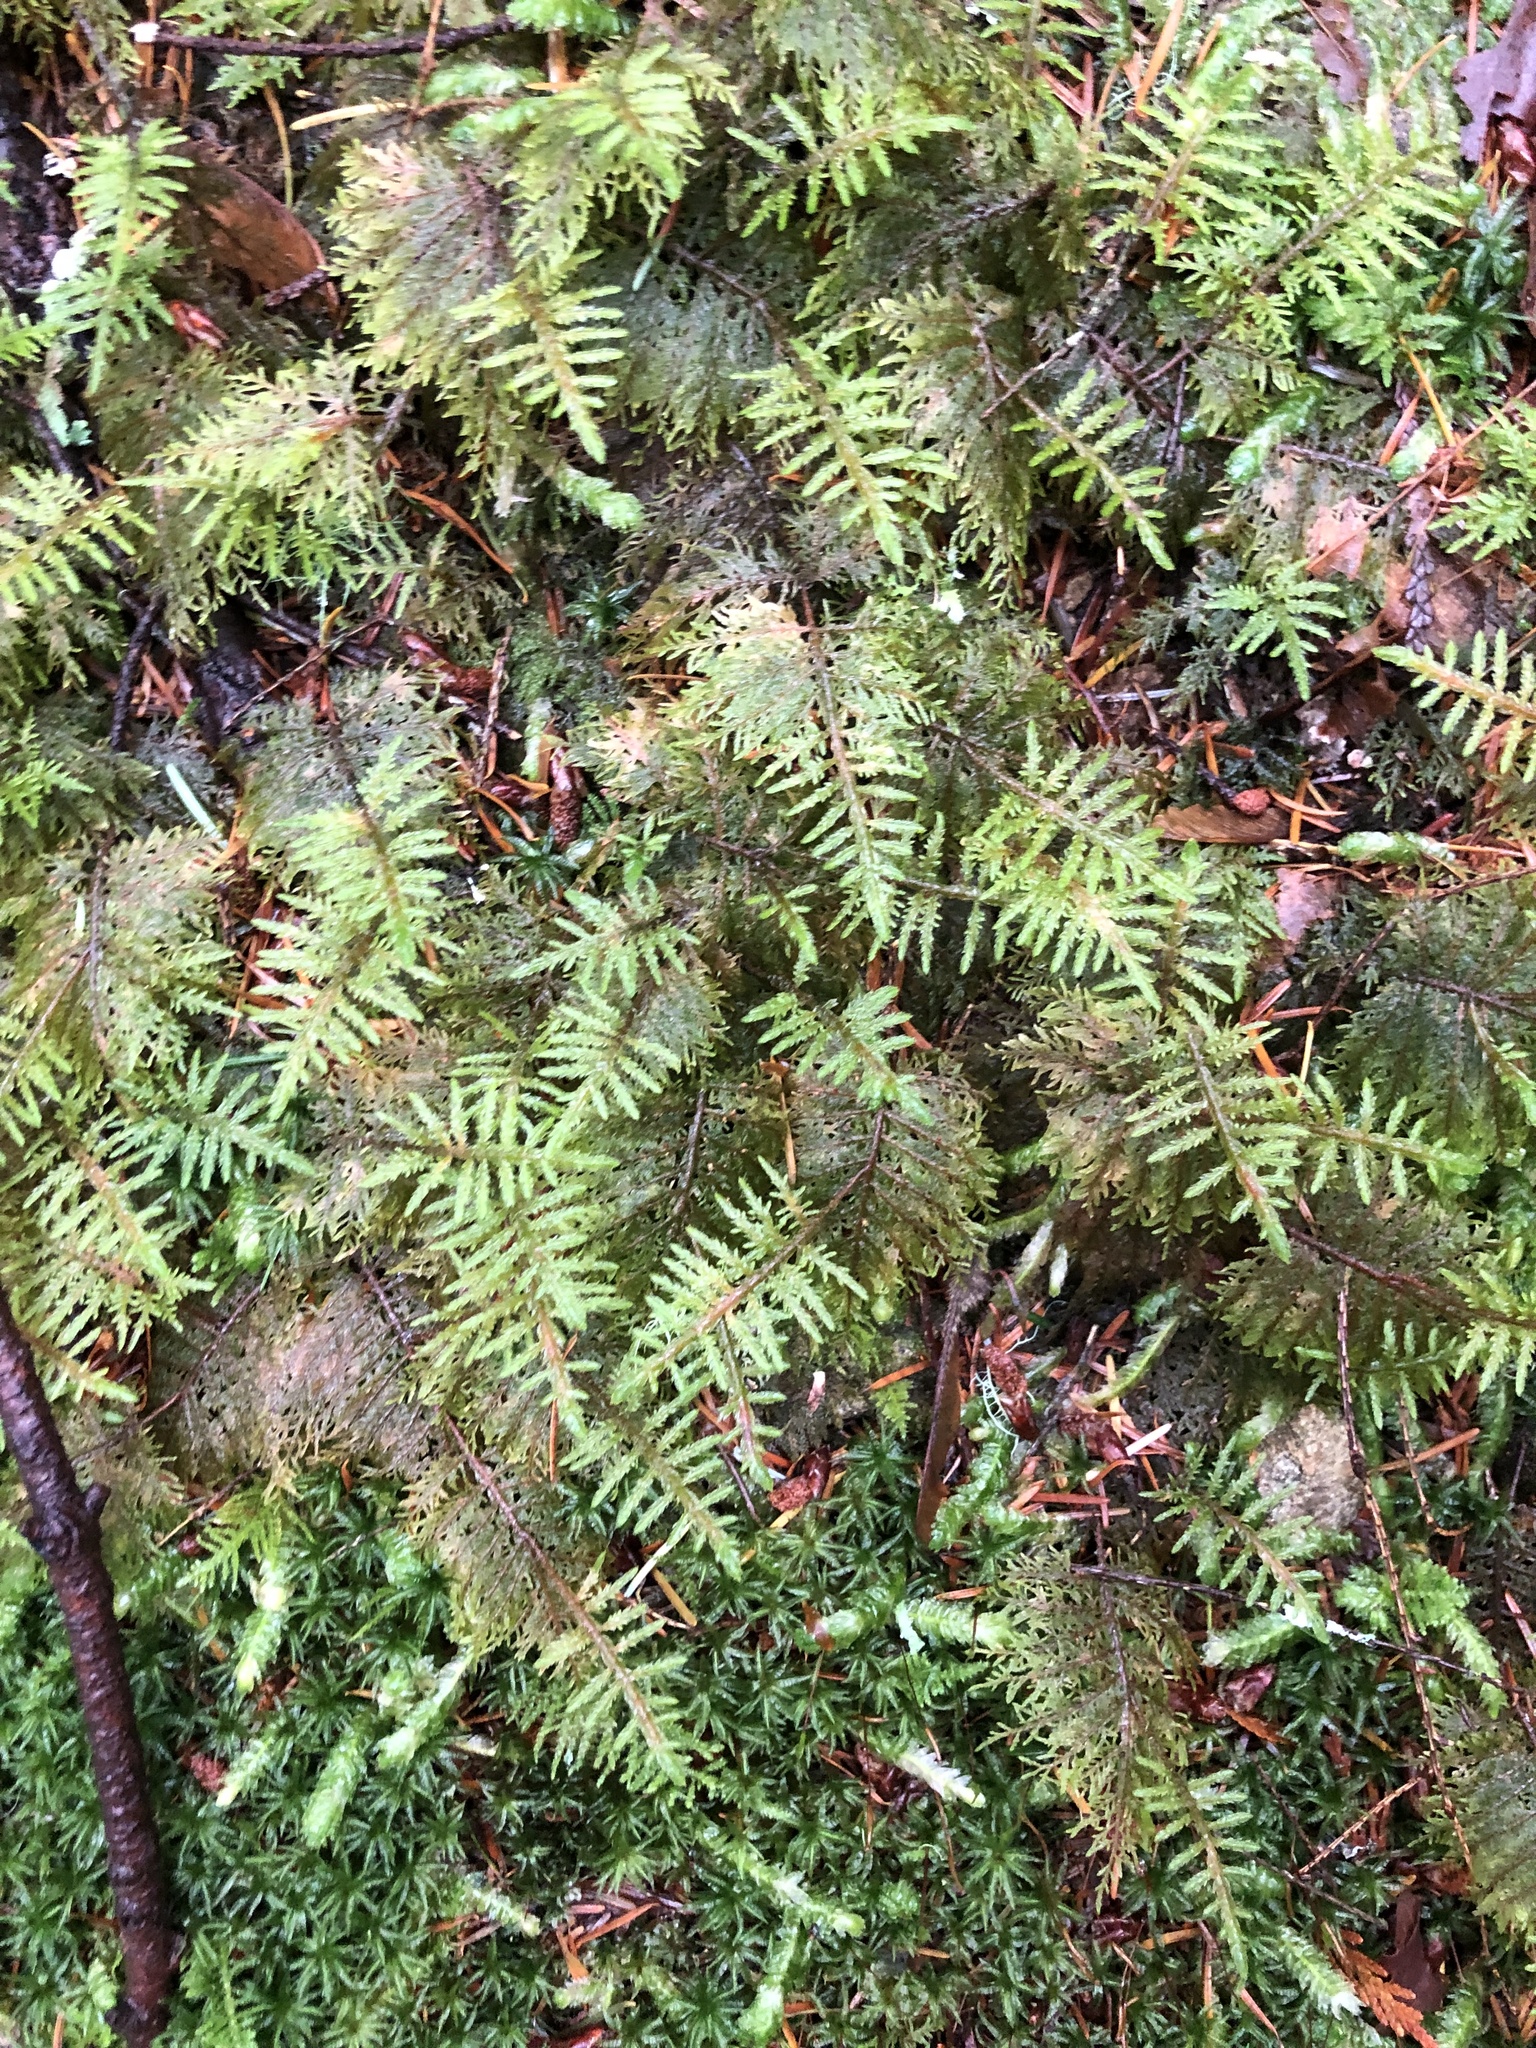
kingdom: Plantae
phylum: Bryophyta
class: Bryopsida
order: Hypnales
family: Hylocomiaceae
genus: Hylocomium
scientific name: Hylocomium splendens
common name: Stairstep moss
